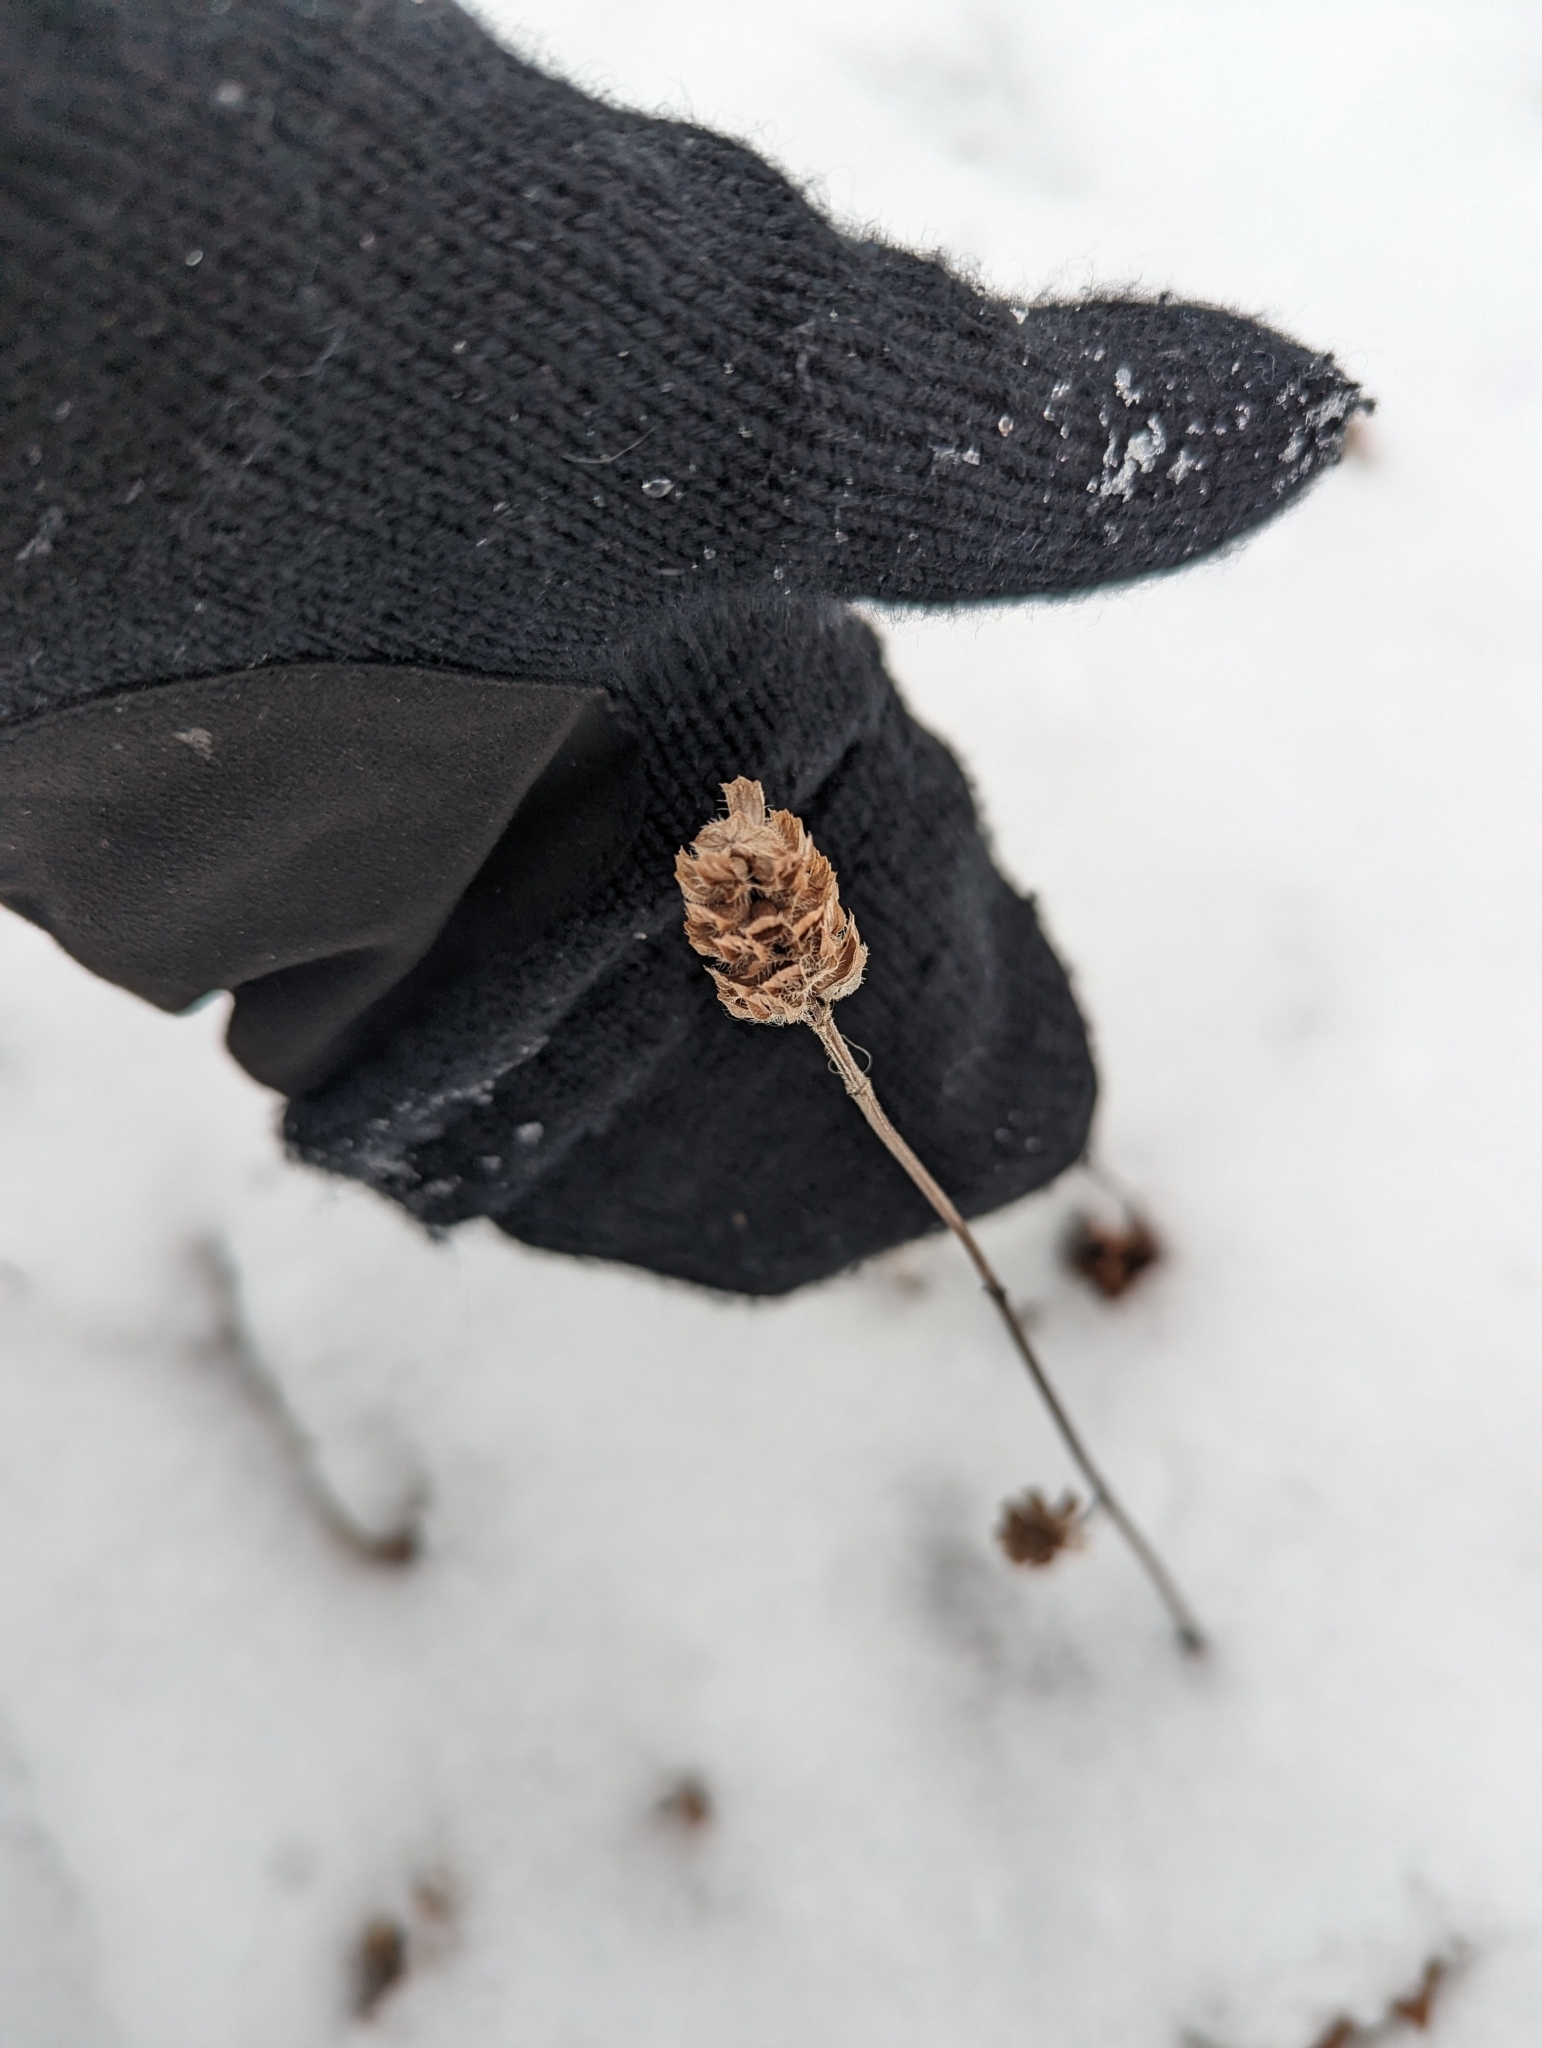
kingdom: Plantae
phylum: Tracheophyta
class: Magnoliopsida
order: Lamiales
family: Lamiaceae
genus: Prunella
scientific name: Prunella vulgaris
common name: Heal-all
